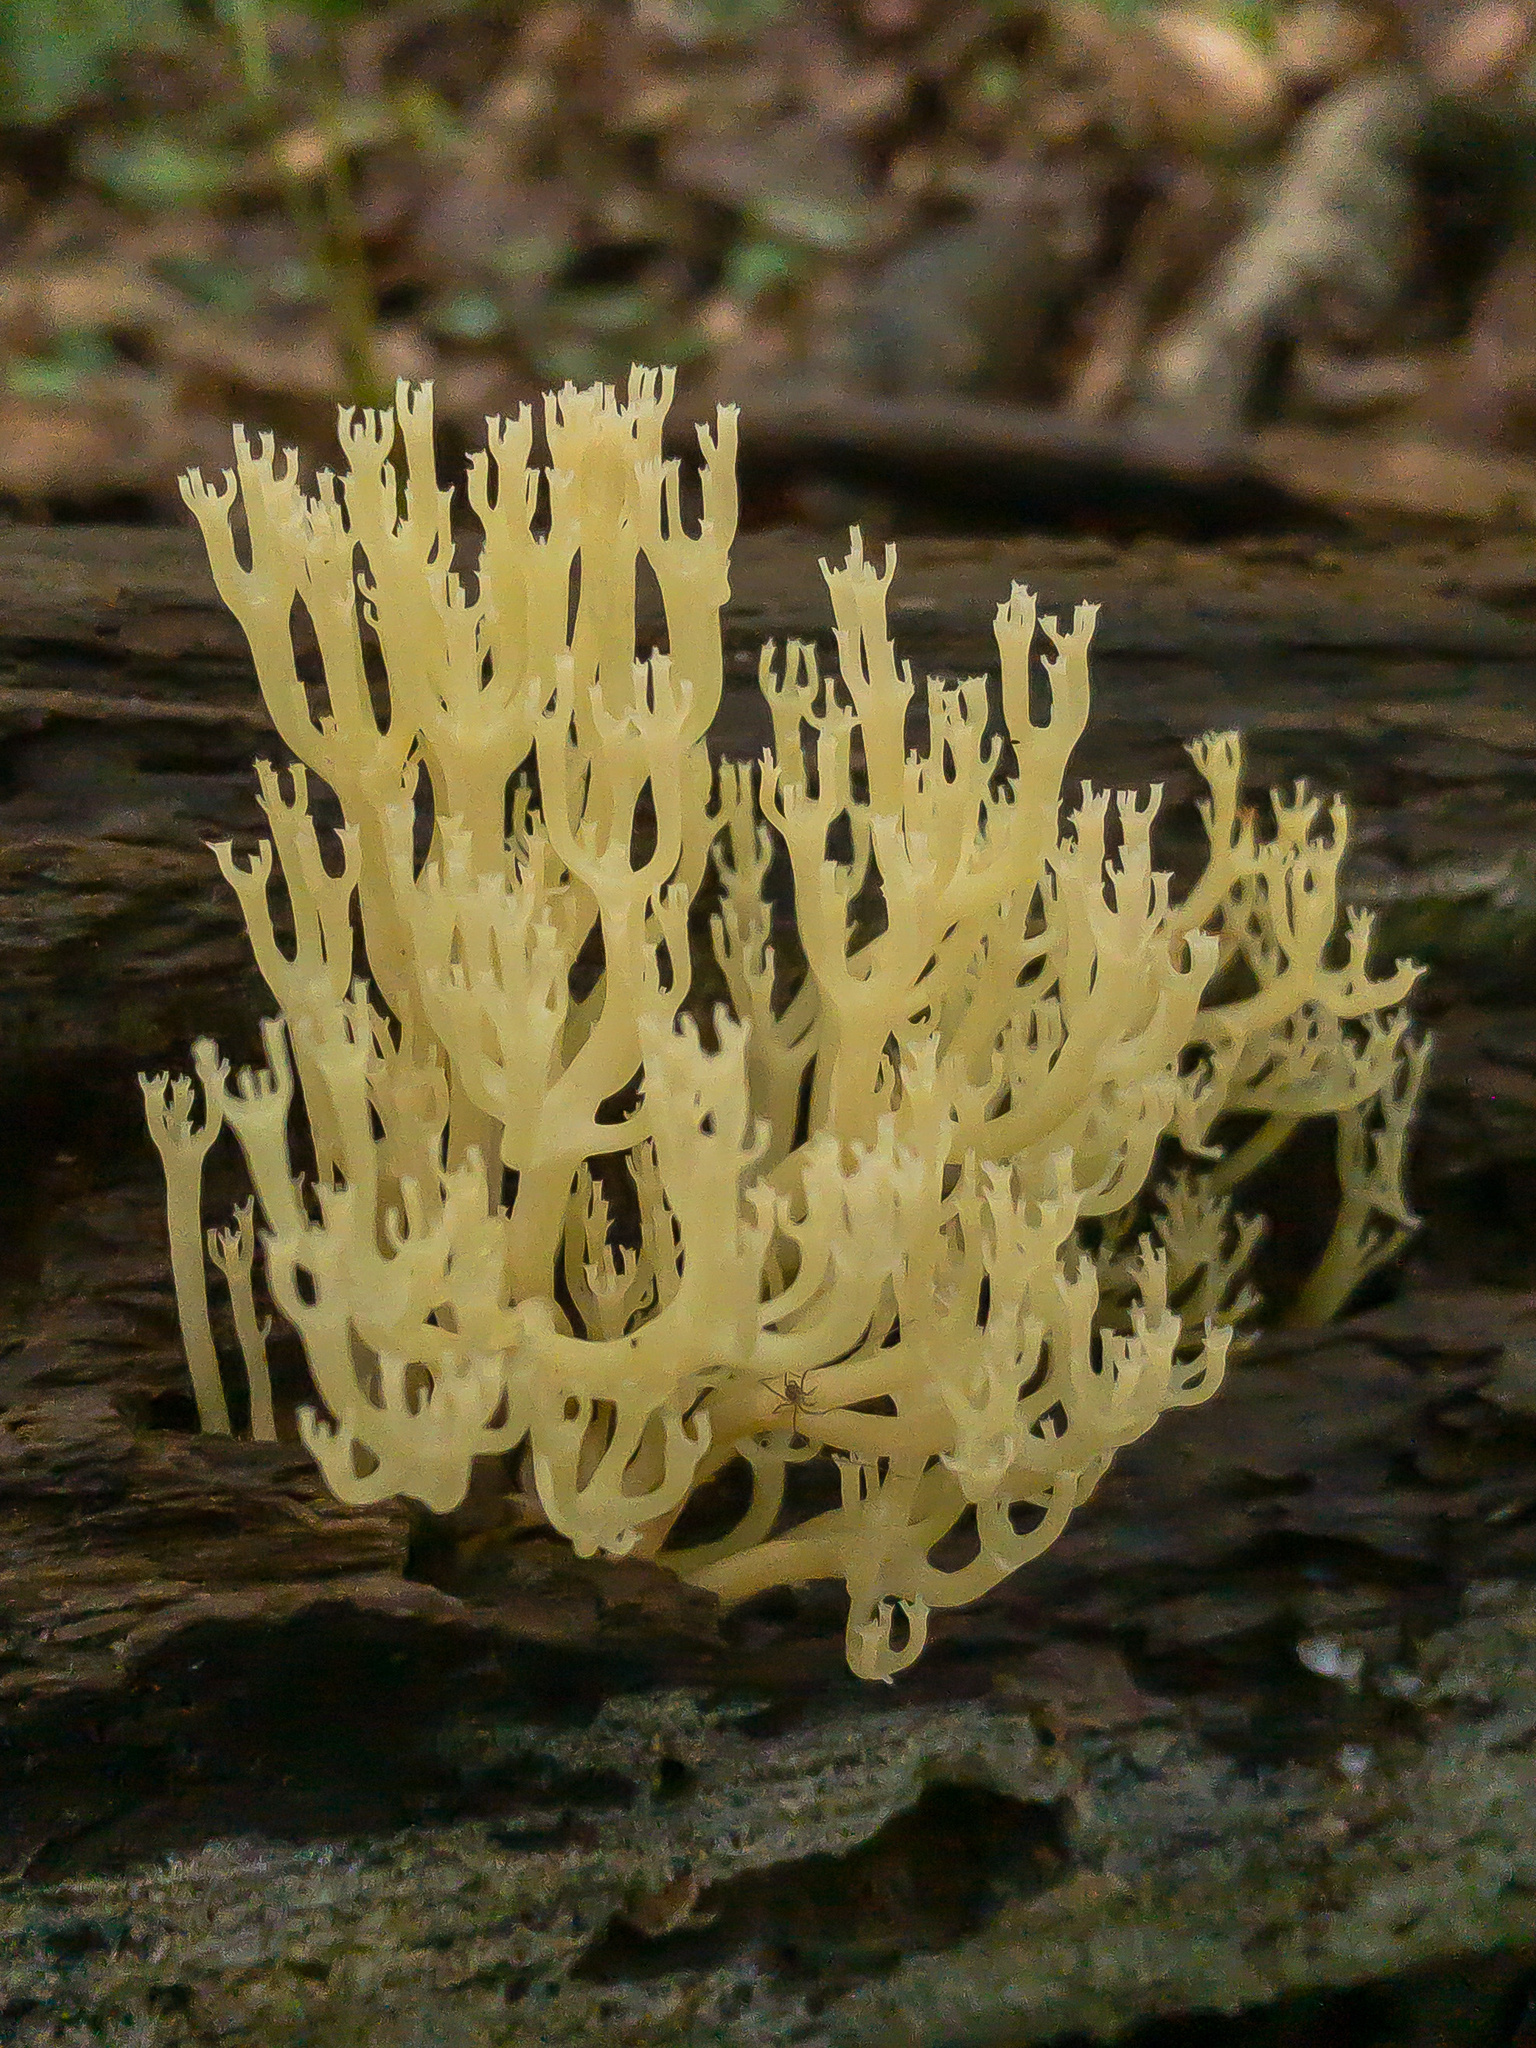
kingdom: Fungi
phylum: Basidiomycota
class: Agaricomycetes
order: Russulales
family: Auriscalpiaceae
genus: Artomyces
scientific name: Artomyces pyxidatus
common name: Crown-tipped coral fungus
